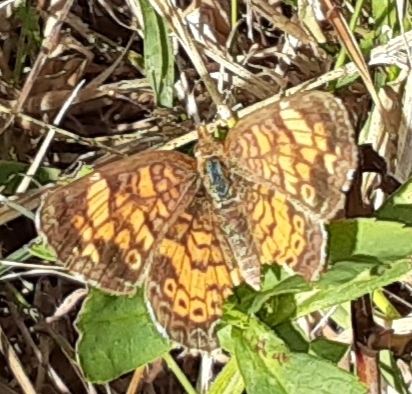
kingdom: Animalia
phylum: Arthropoda
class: Insecta
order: Lepidoptera
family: Nymphalidae
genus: Phyciodes
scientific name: Phyciodes tharos
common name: Pearl crescent
